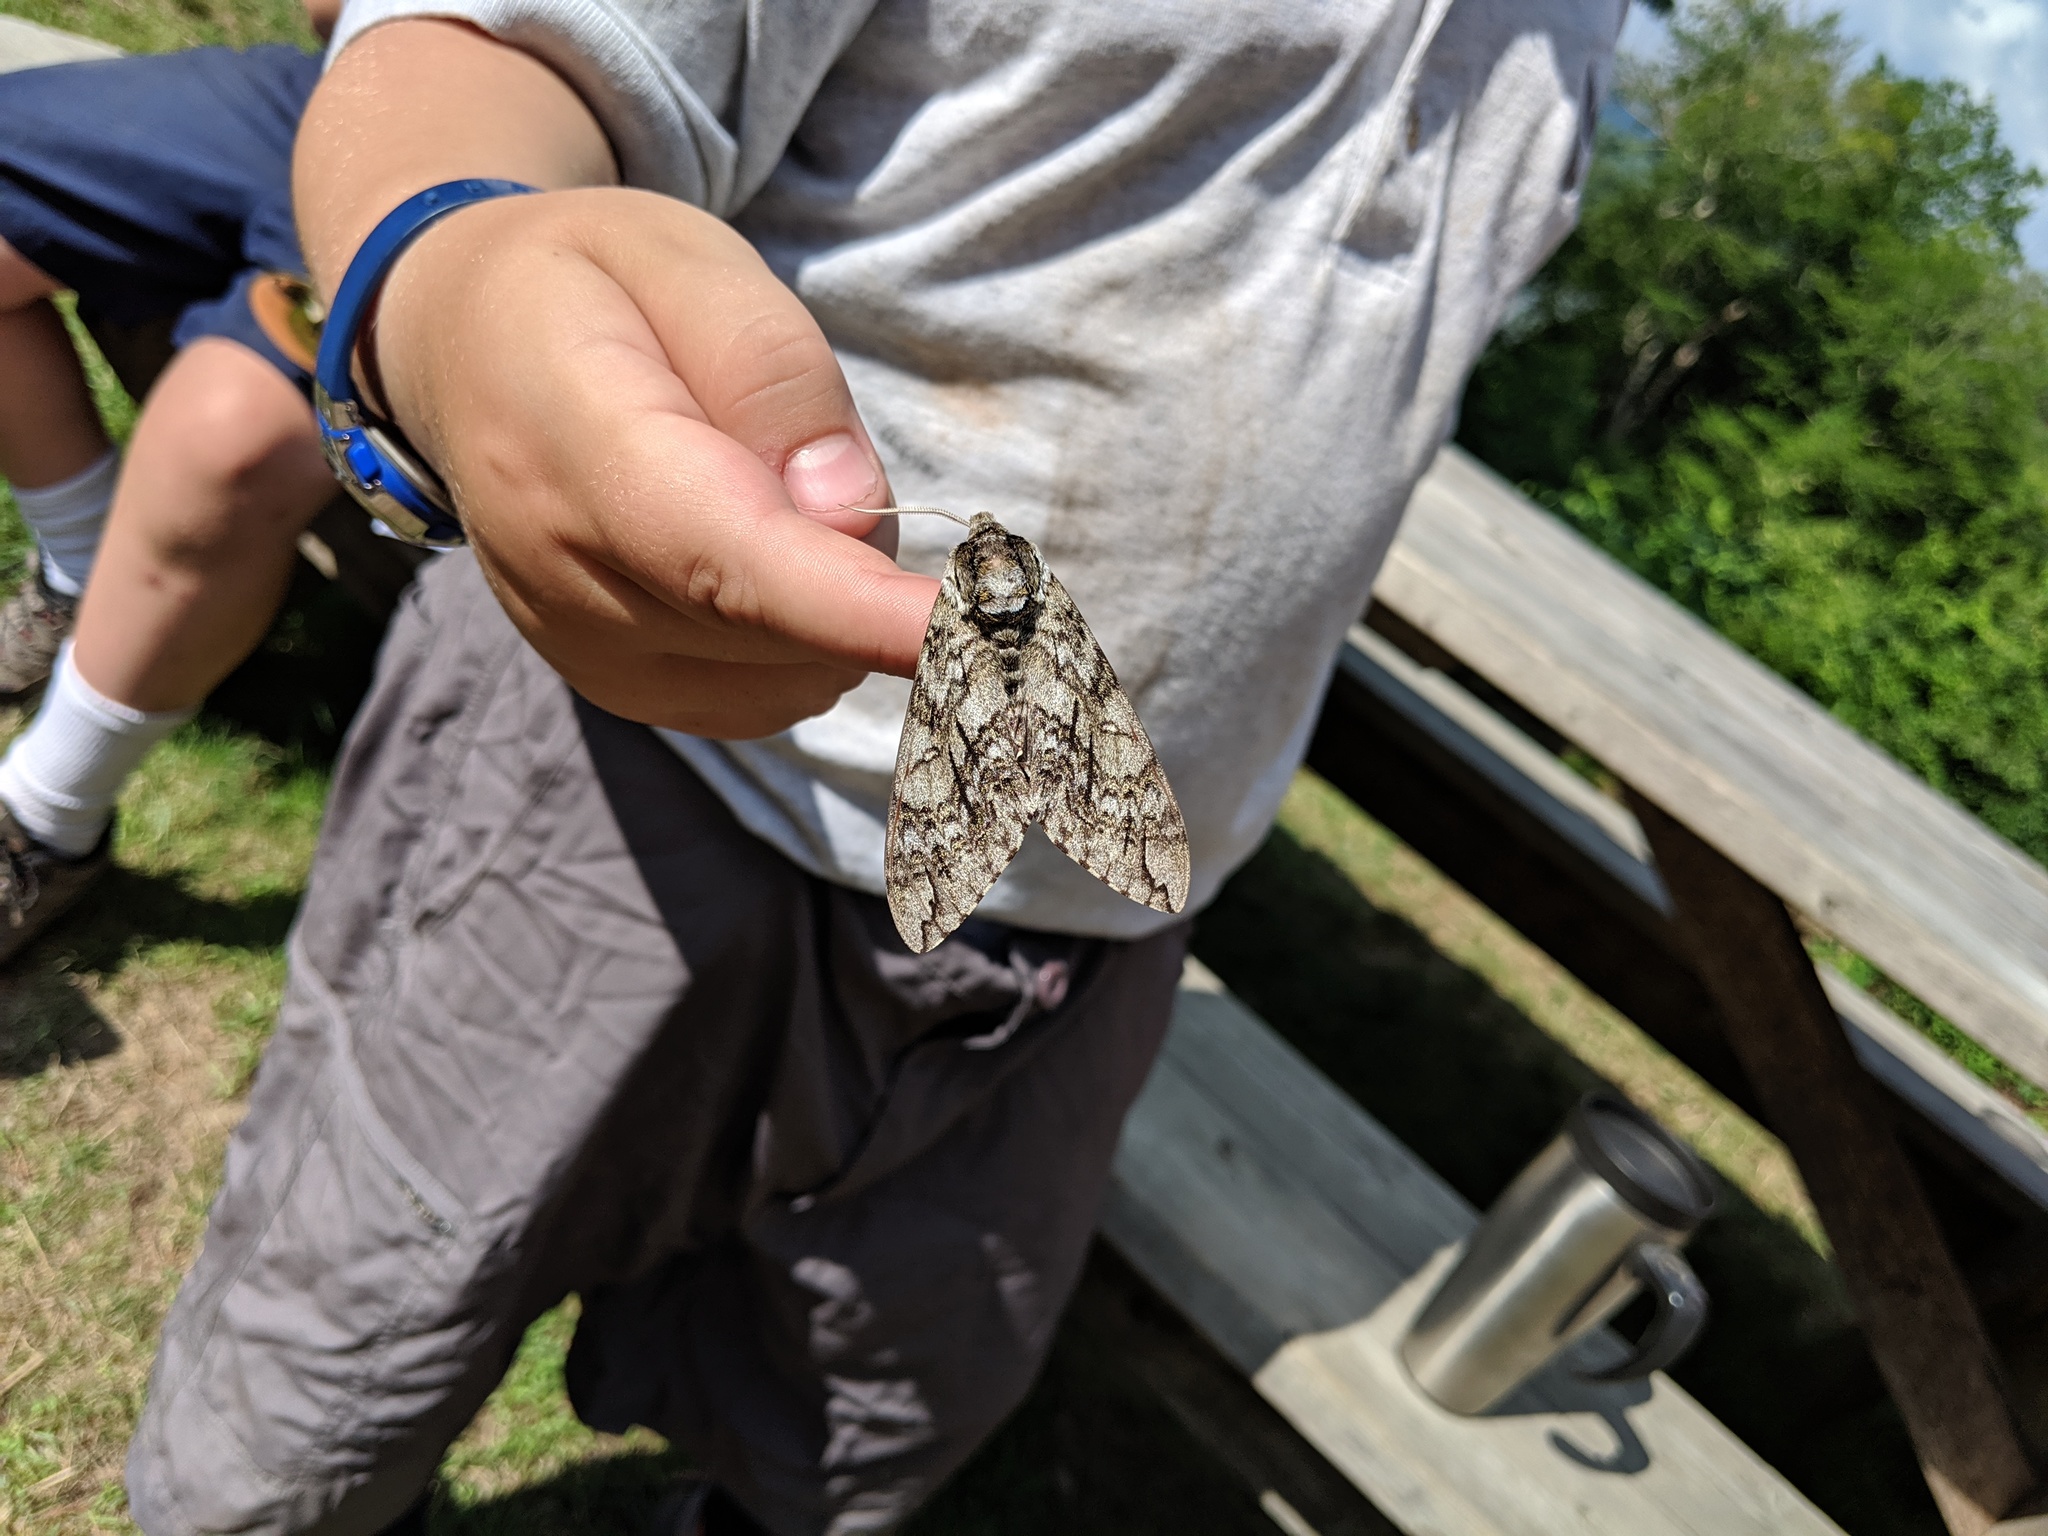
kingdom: Animalia
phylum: Arthropoda
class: Insecta
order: Lepidoptera
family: Sphingidae
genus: Ceratomia
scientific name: Ceratomia undulosa
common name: Waved sphinx
